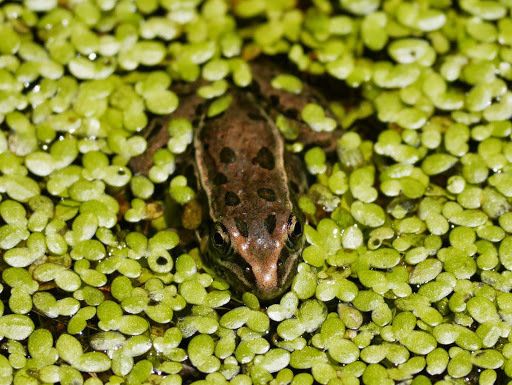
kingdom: Animalia
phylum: Chordata
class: Amphibia
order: Anura
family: Ranidae
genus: Lithobates
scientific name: Lithobates
